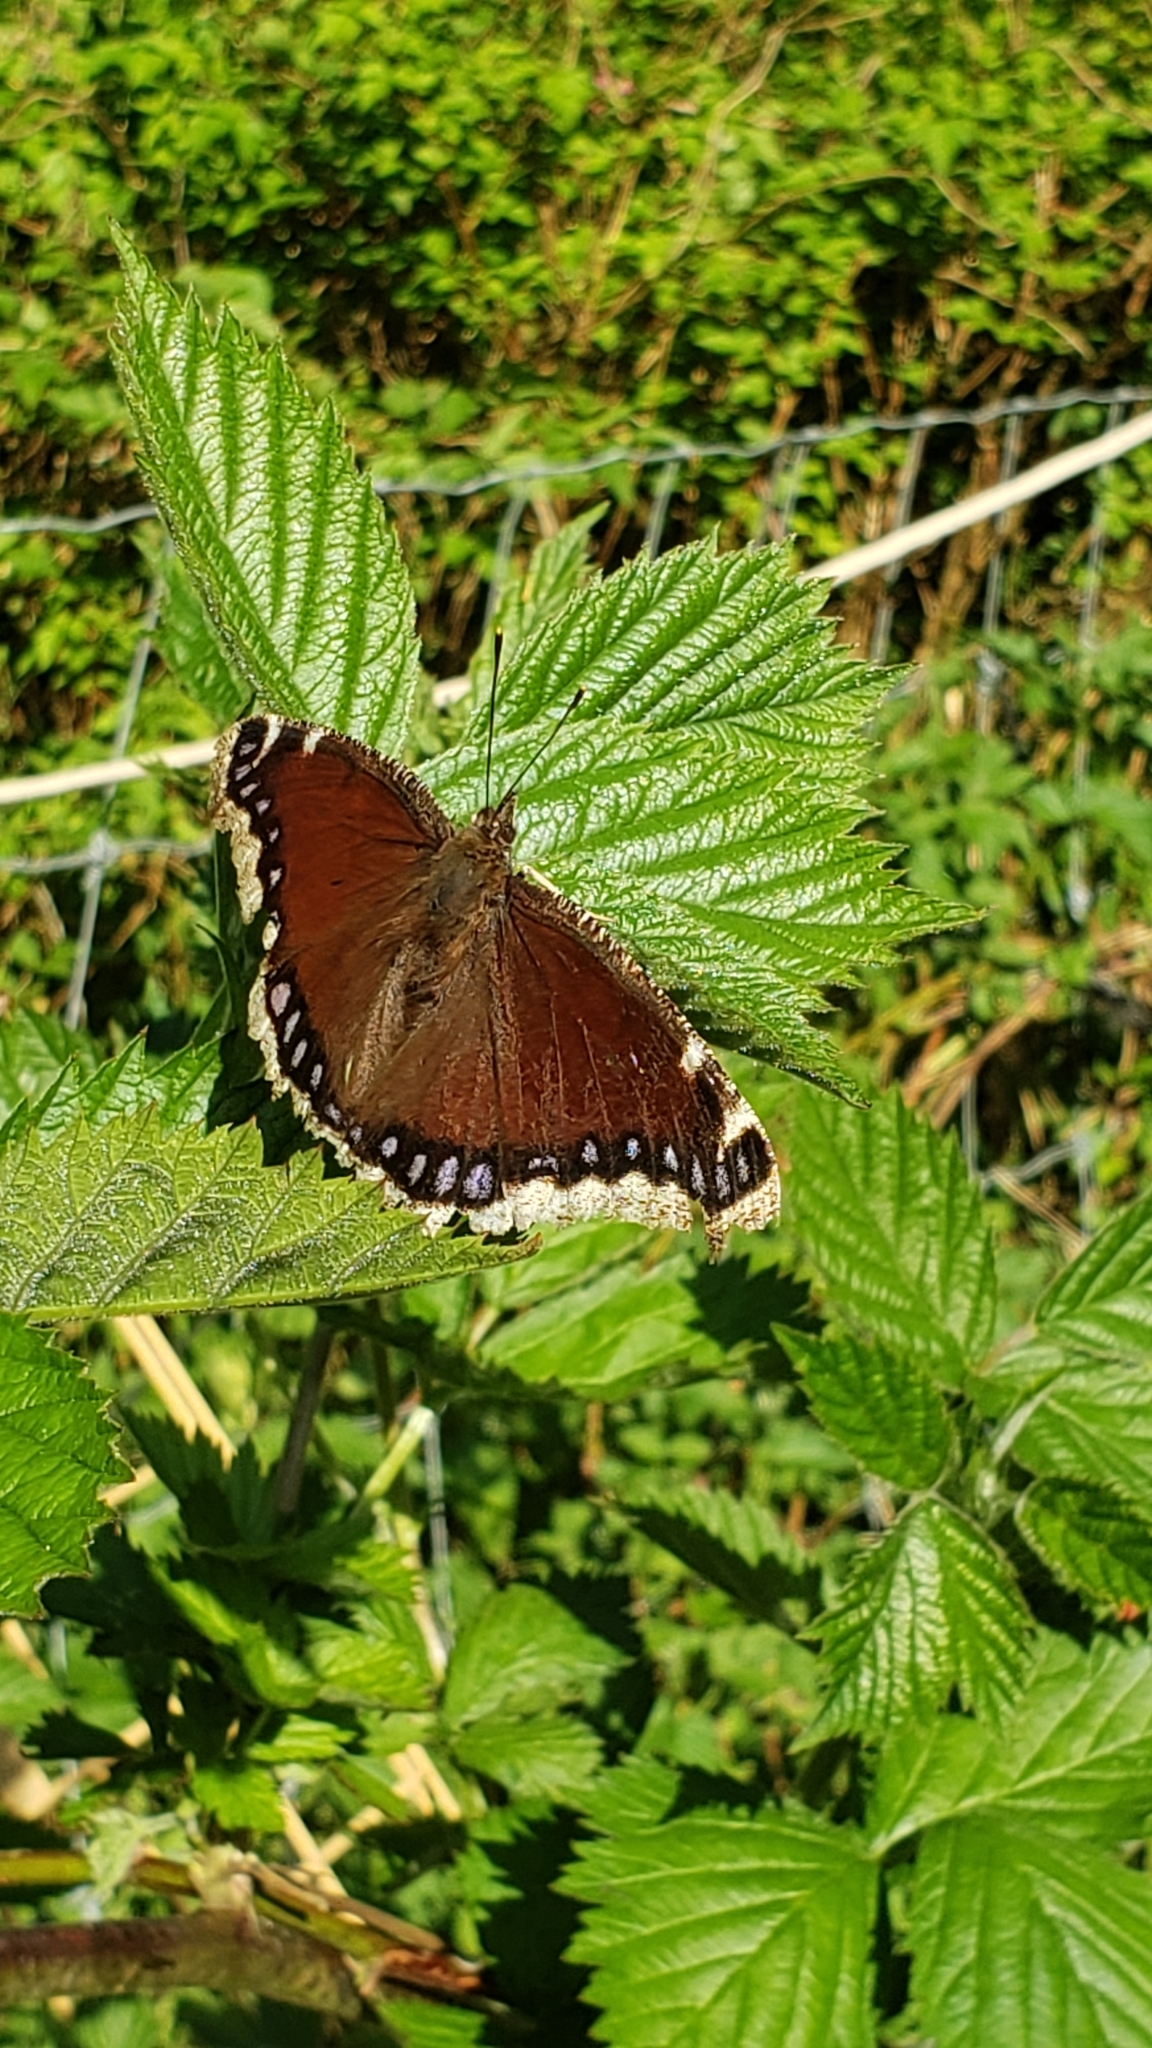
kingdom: Animalia
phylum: Arthropoda
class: Insecta
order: Lepidoptera
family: Nymphalidae
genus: Nymphalis
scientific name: Nymphalis antiopa
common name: Camberwell beauty
